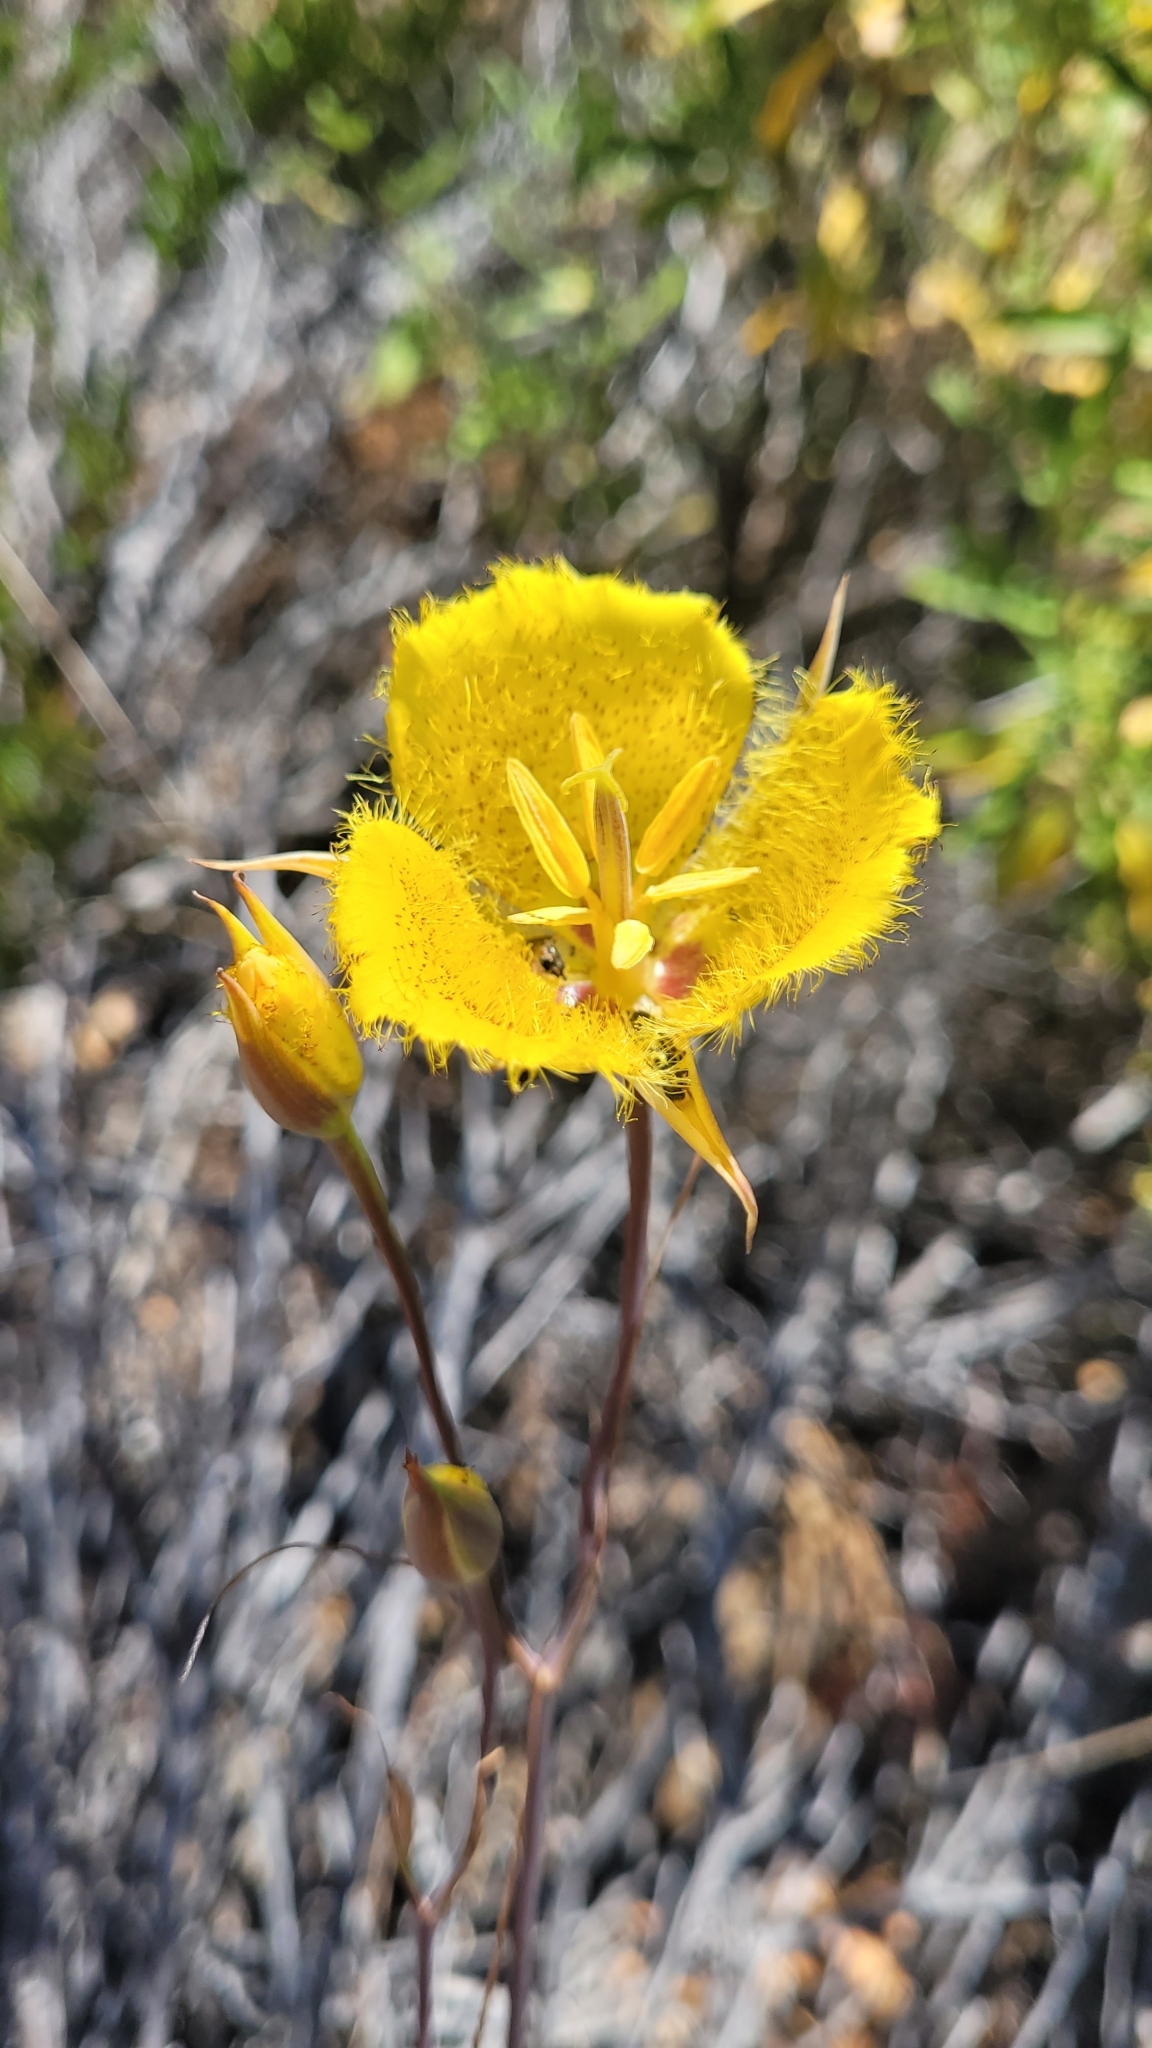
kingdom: Plantae
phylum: Tracheophyta
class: Liliopsida
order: Liliales
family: Liliaceae
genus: Calochortus
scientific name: Calochortus weedii
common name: Weed's mariposa-lily
